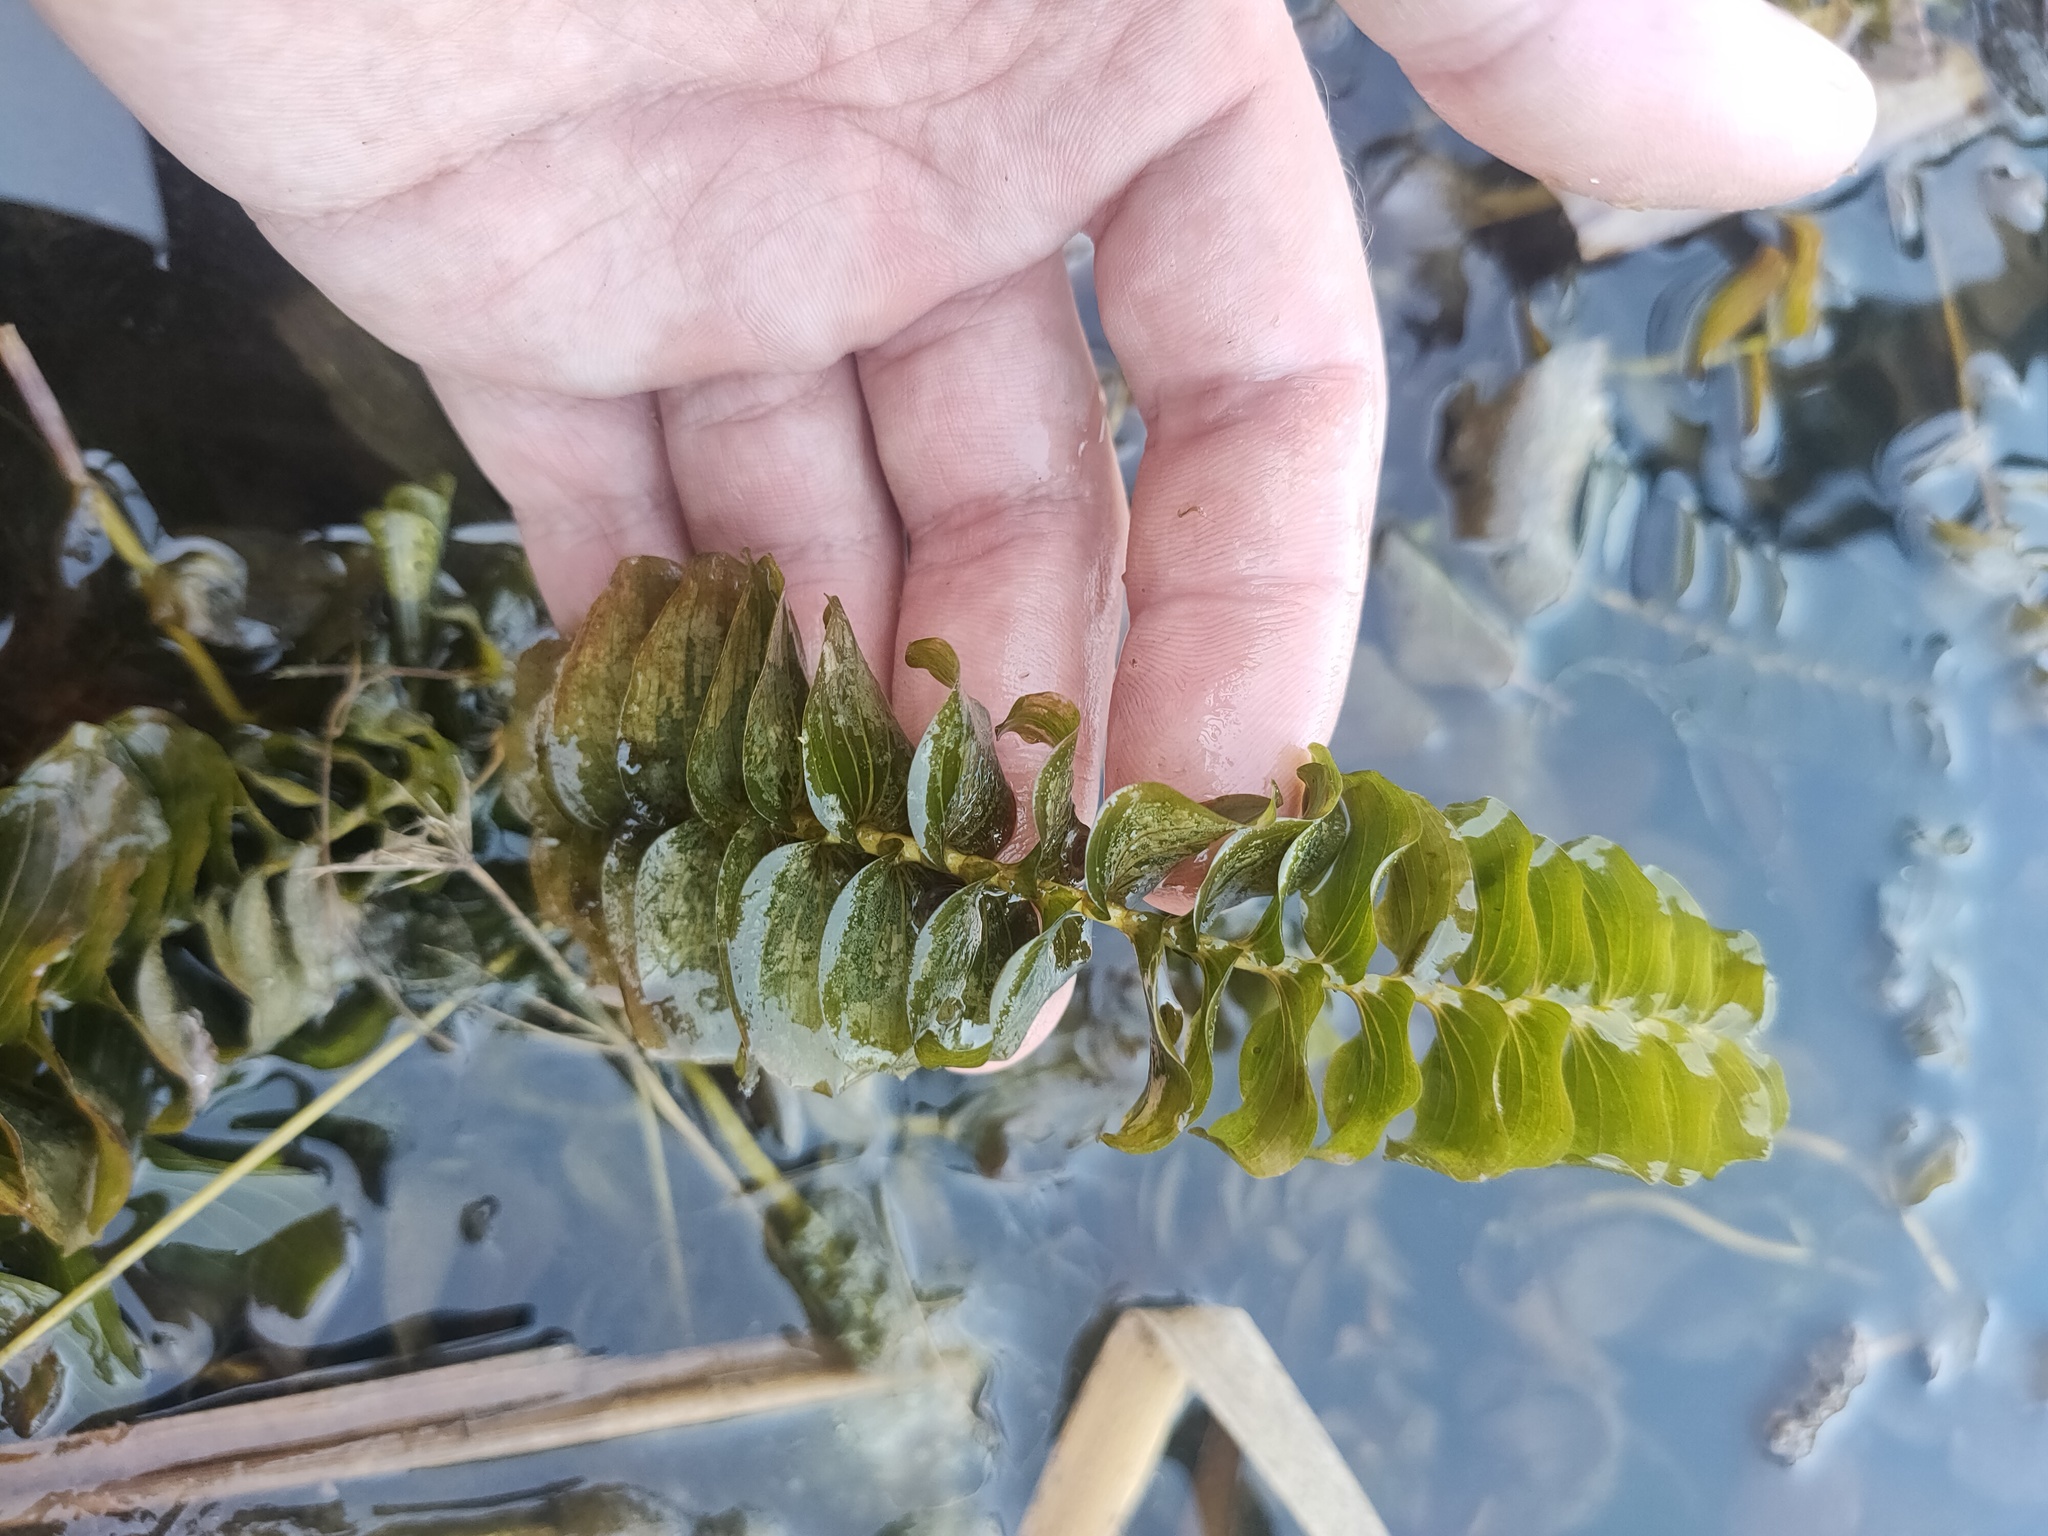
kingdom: Plantae
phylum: Tracheophyta
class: Liliopsida
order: Alismatales
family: Potamogetonaceae
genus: Potamogeton
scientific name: Potamogeton perfoliatus
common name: Perfoliate pondweed
